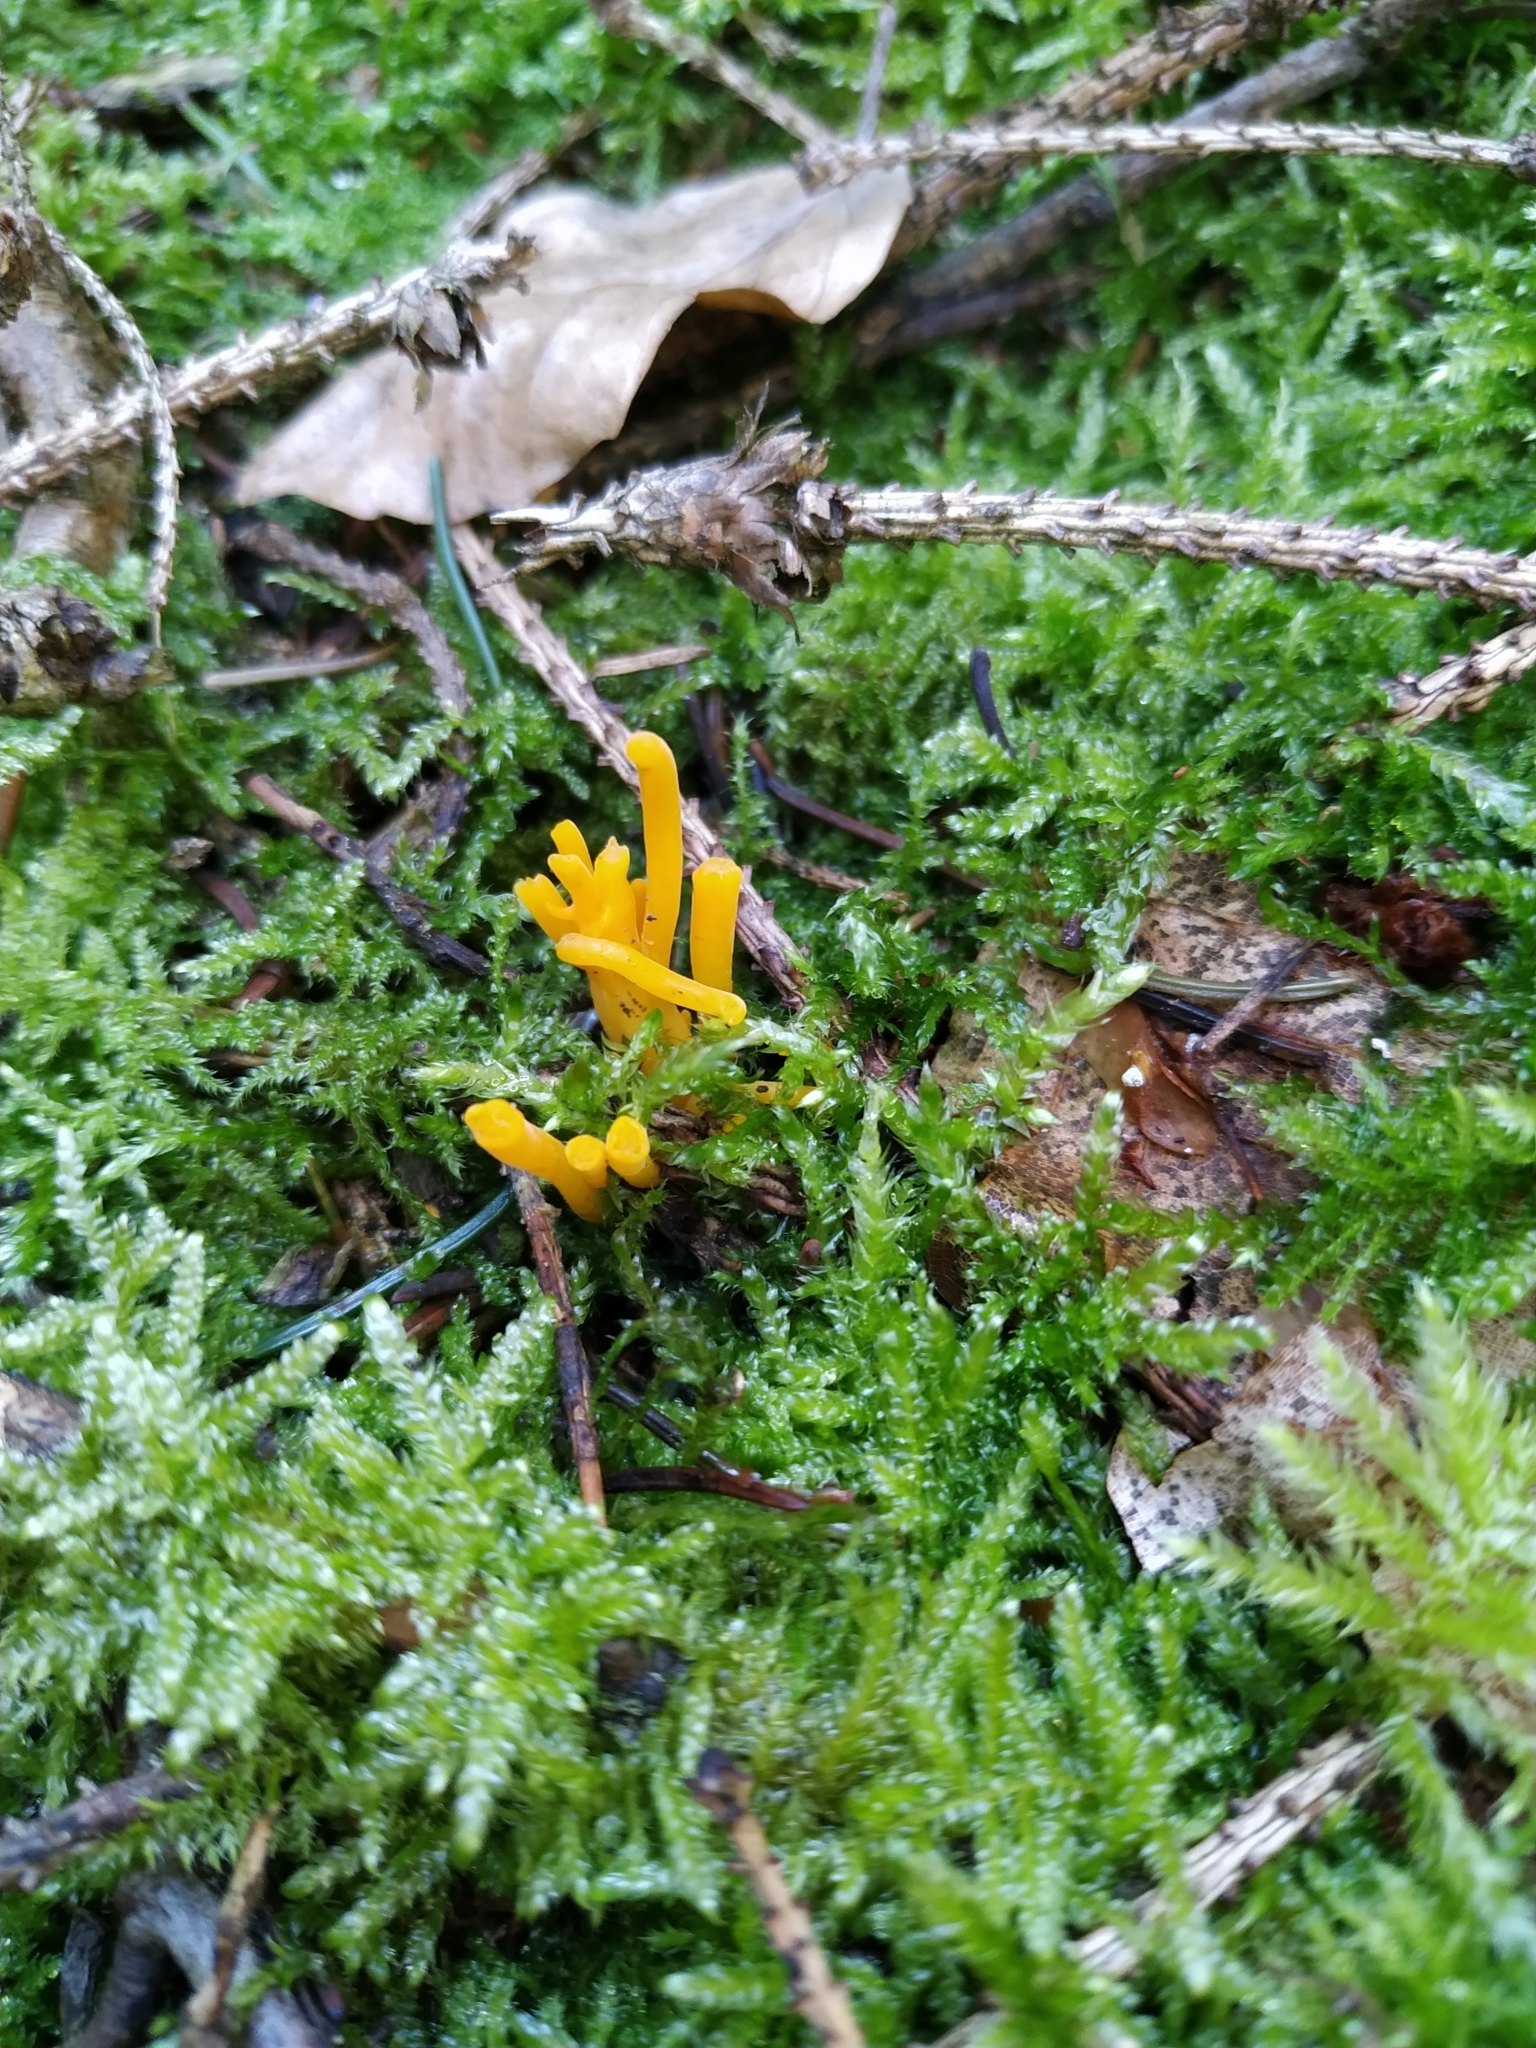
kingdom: Fungi
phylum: Basidiomycota
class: Dacrymycetes
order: Dacrymycetales
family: Dacrymycetaceae
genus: Calocera
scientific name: Calocera viscosa
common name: Yellow stagshorn
